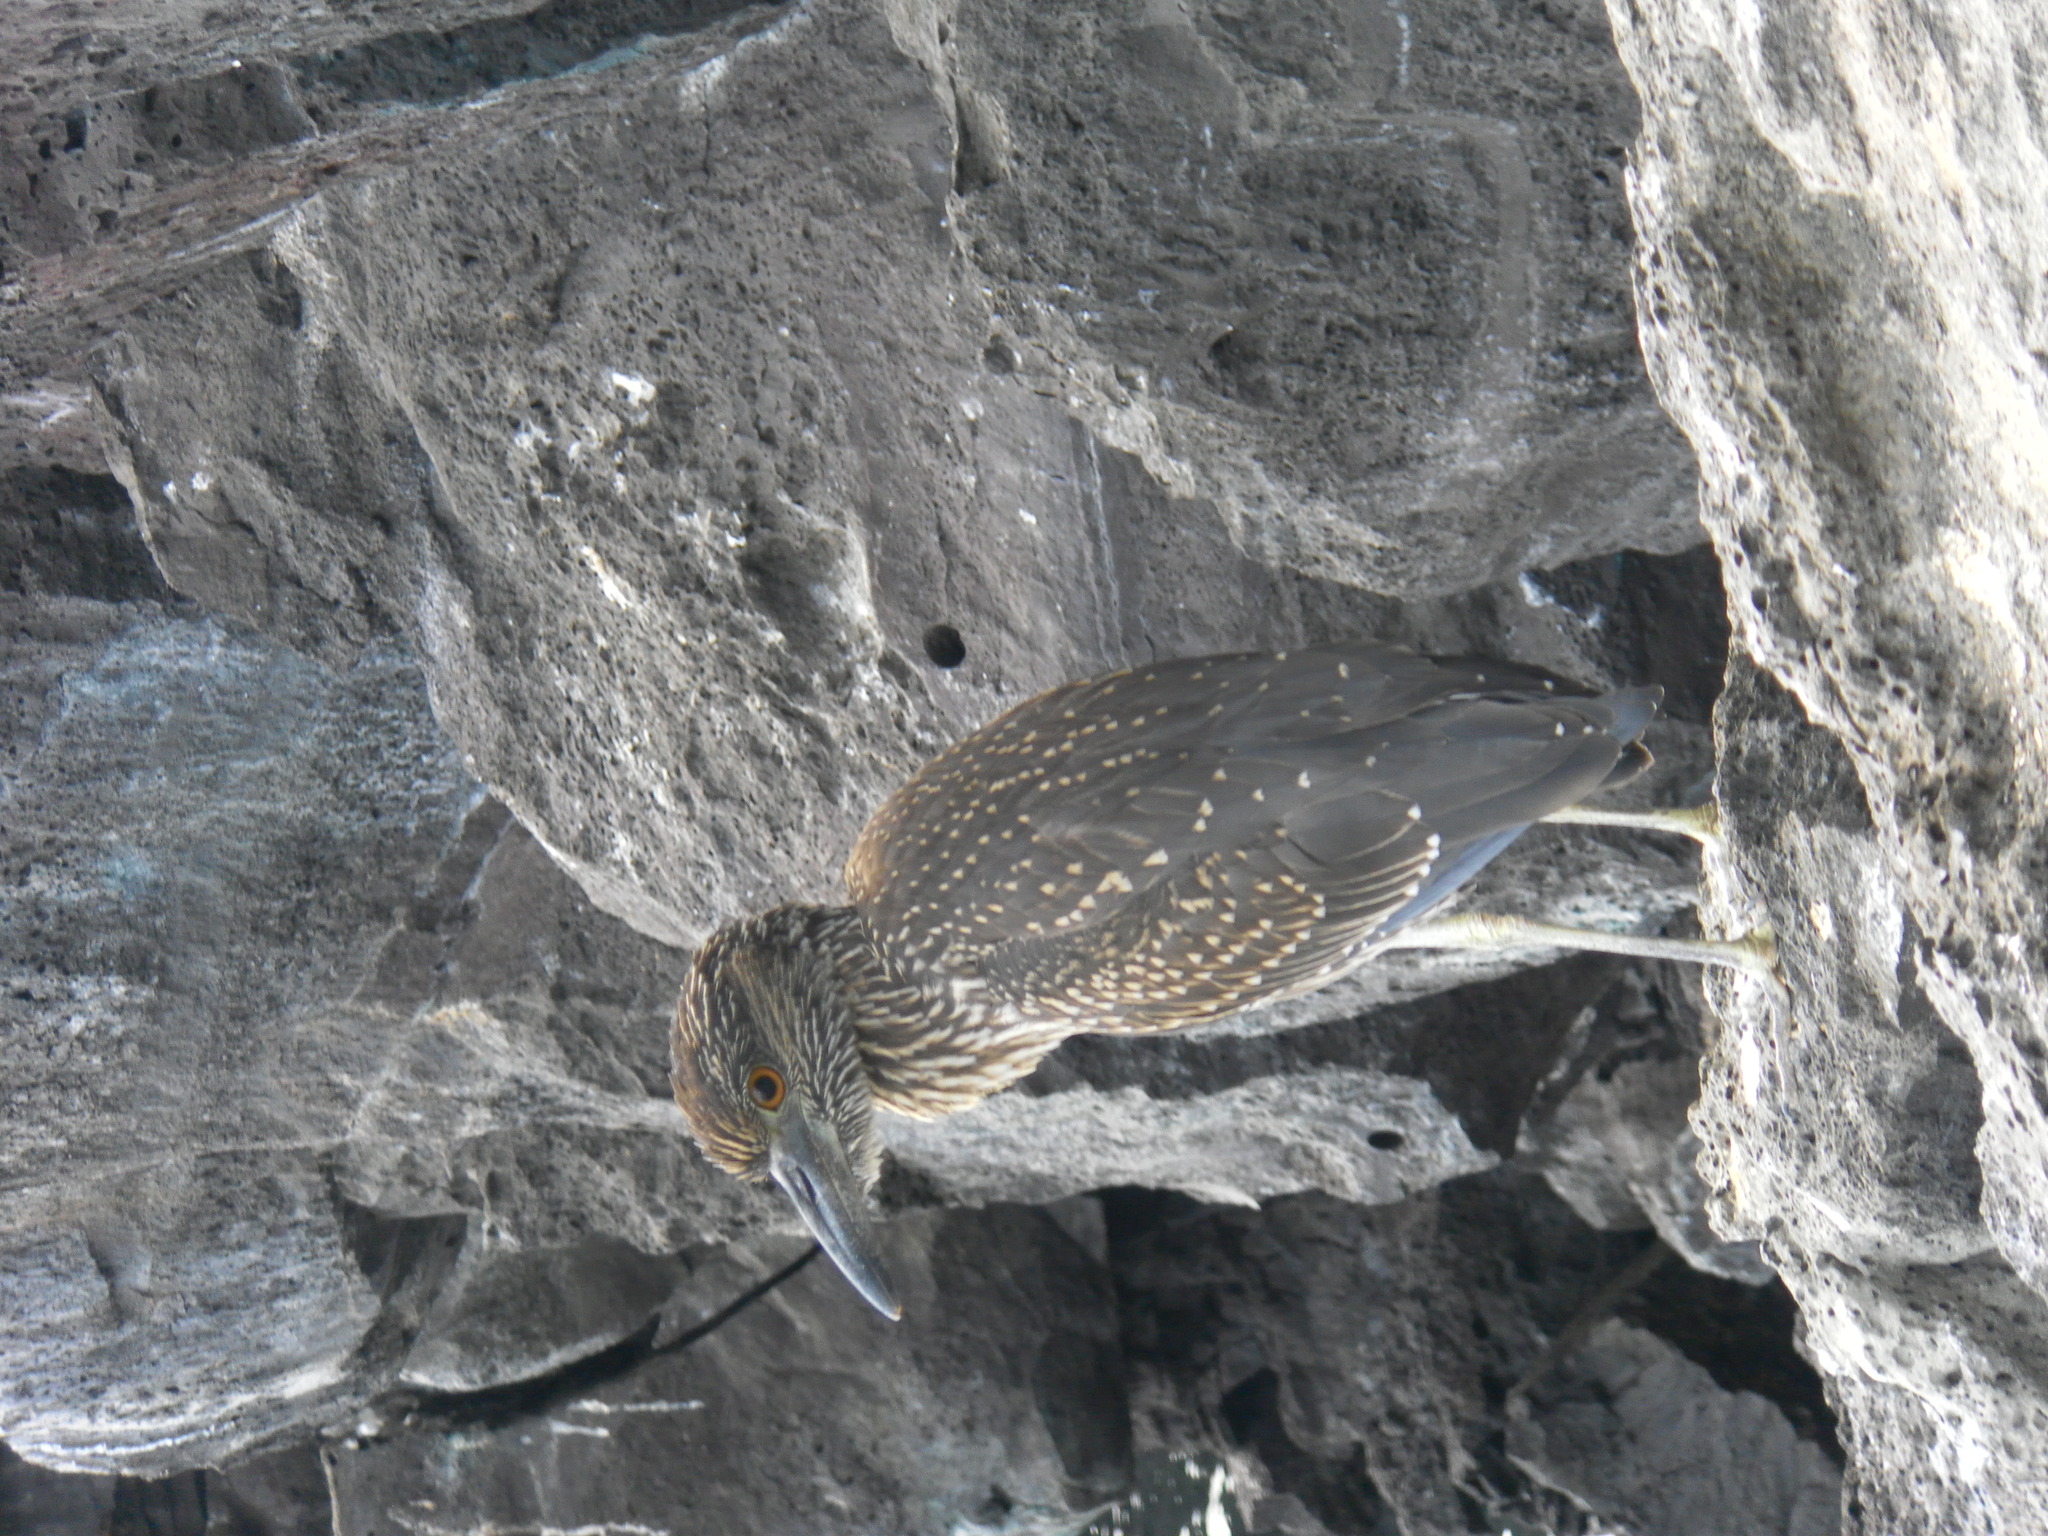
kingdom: Animalia
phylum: Chordata
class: Aves
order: Pelecaniformes
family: Ardeidae
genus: Nyctanassa
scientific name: Nyctanassa violacea
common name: Yellow-crowned night heron
